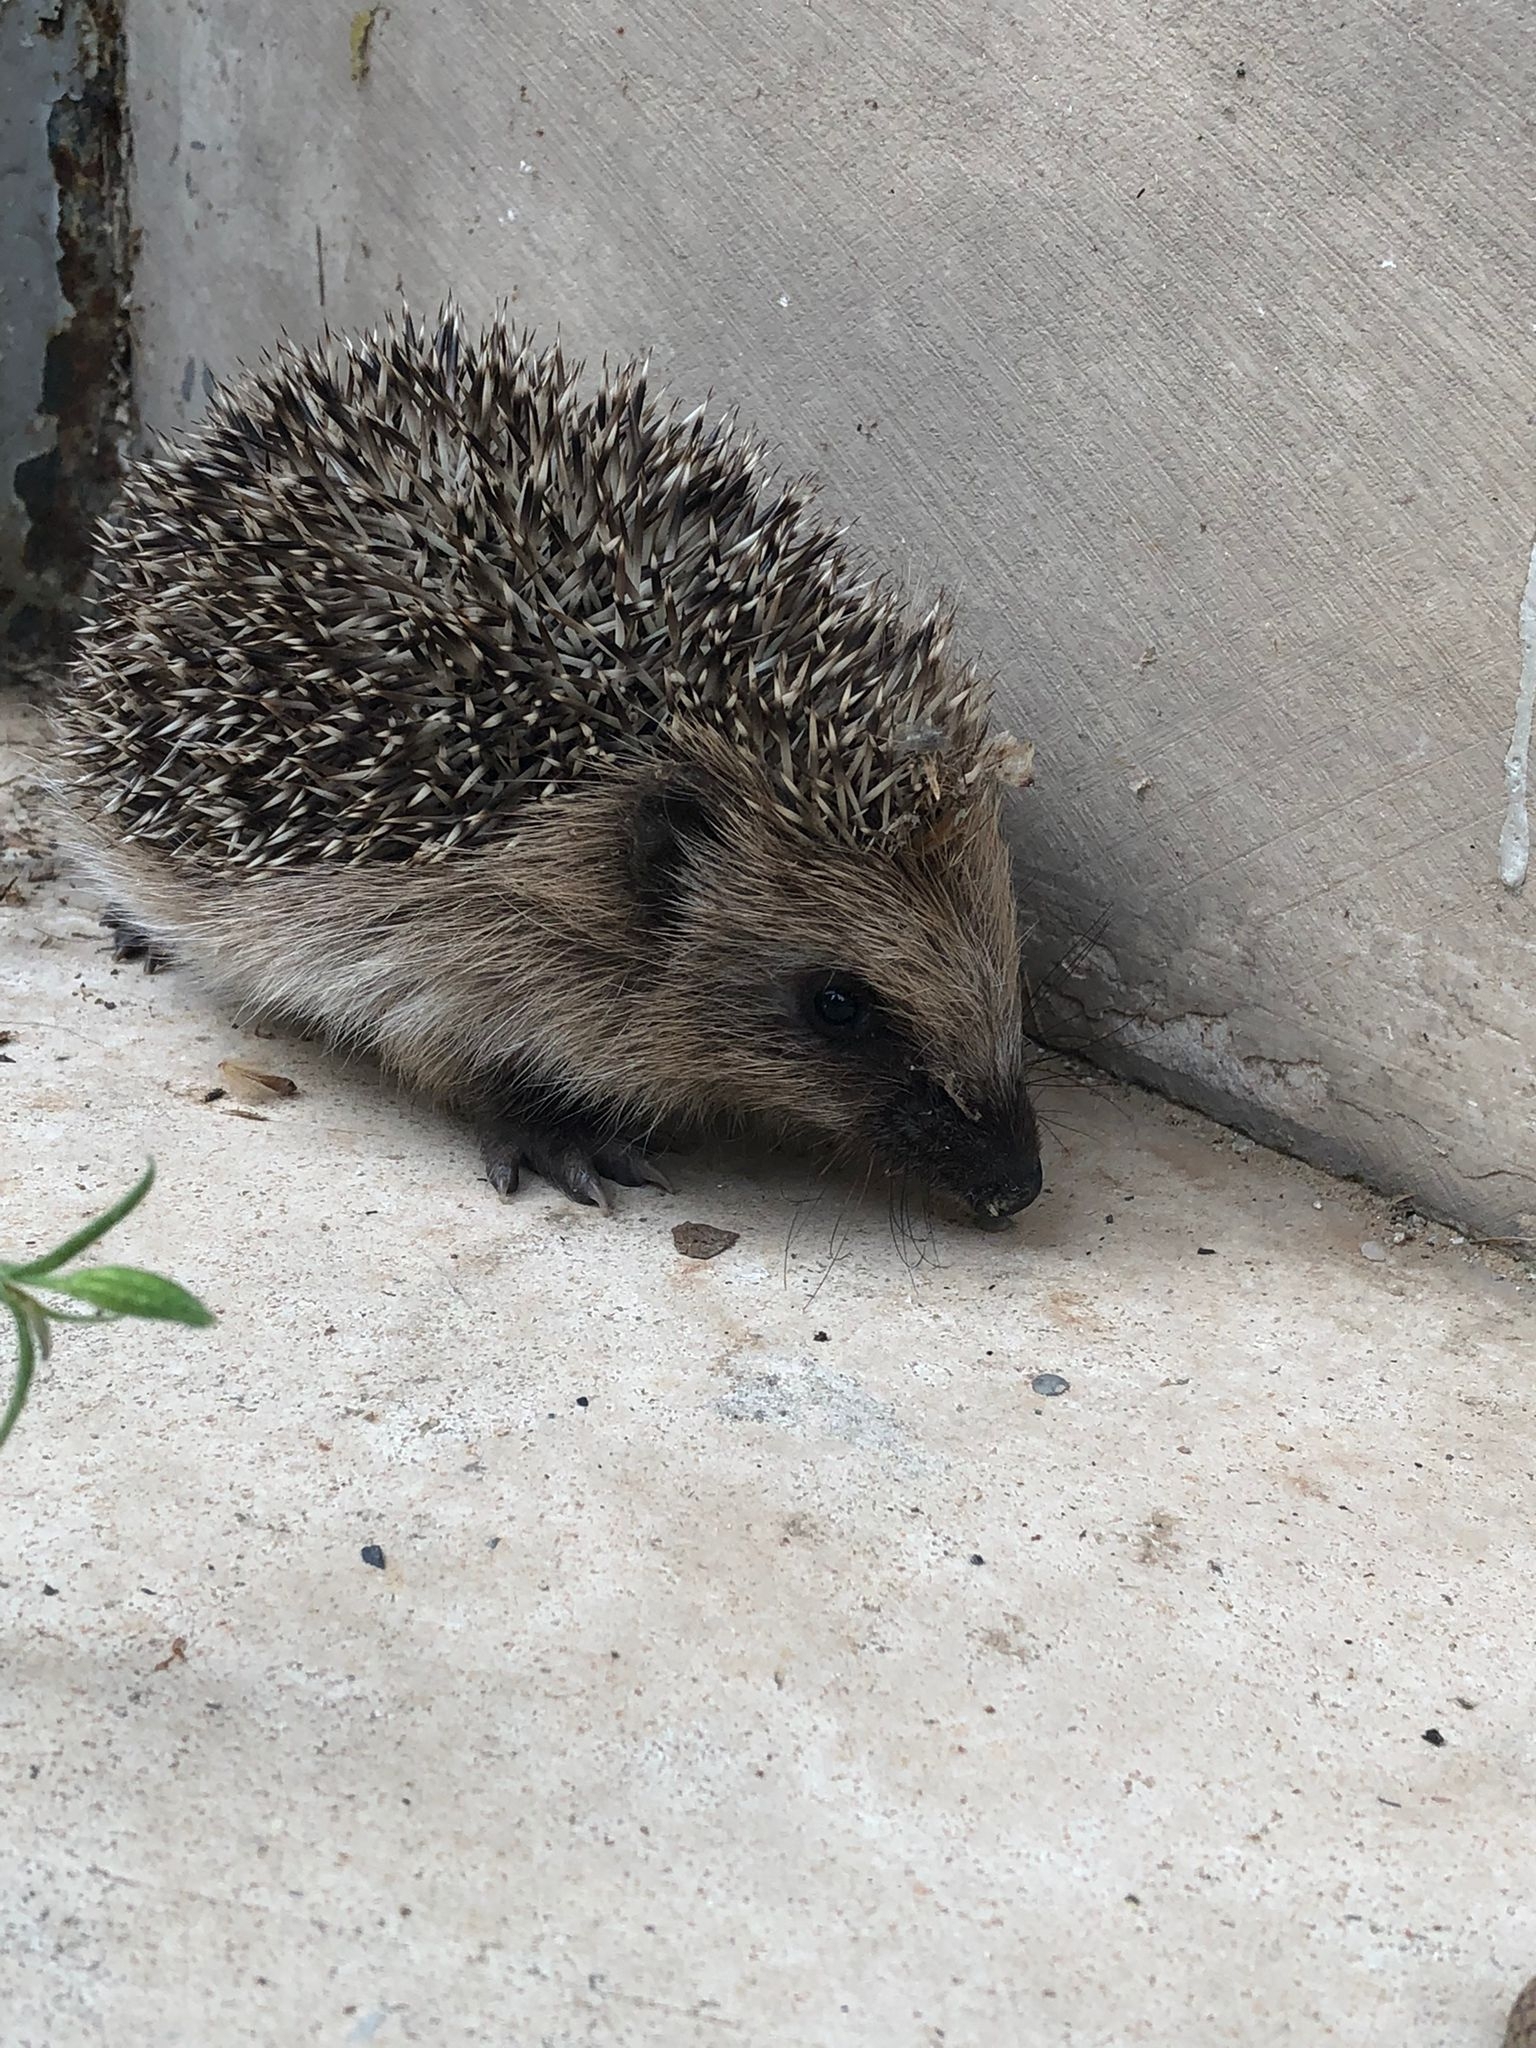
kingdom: Animalia
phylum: Chordata
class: Mammalia
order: Erinaceomorpha
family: Erinaceidae
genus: Erinaceus
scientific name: Erinaceus europaeus
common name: West european hedgehog
